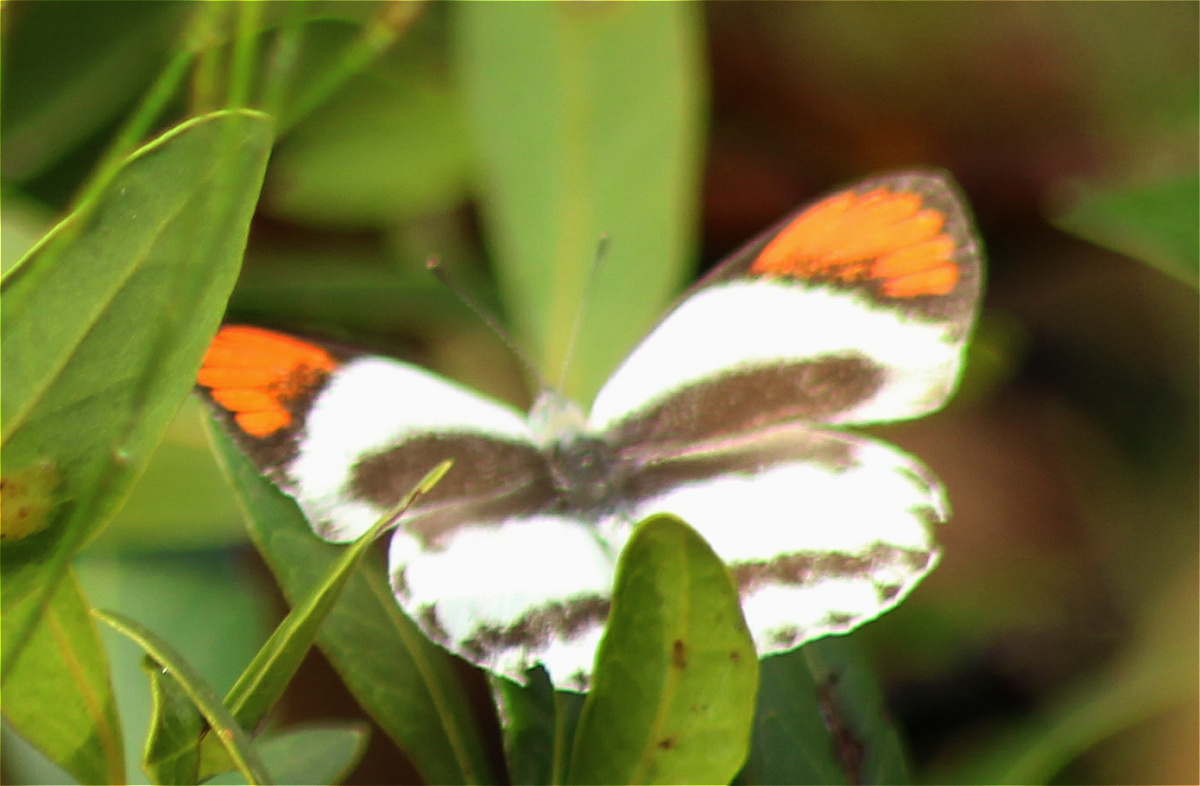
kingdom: Animalia
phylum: Arthropoda
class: Insecta
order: Lepidoptera
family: Pieridae
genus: Colotis
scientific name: Colotis euippe
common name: Round-winged orange tip
